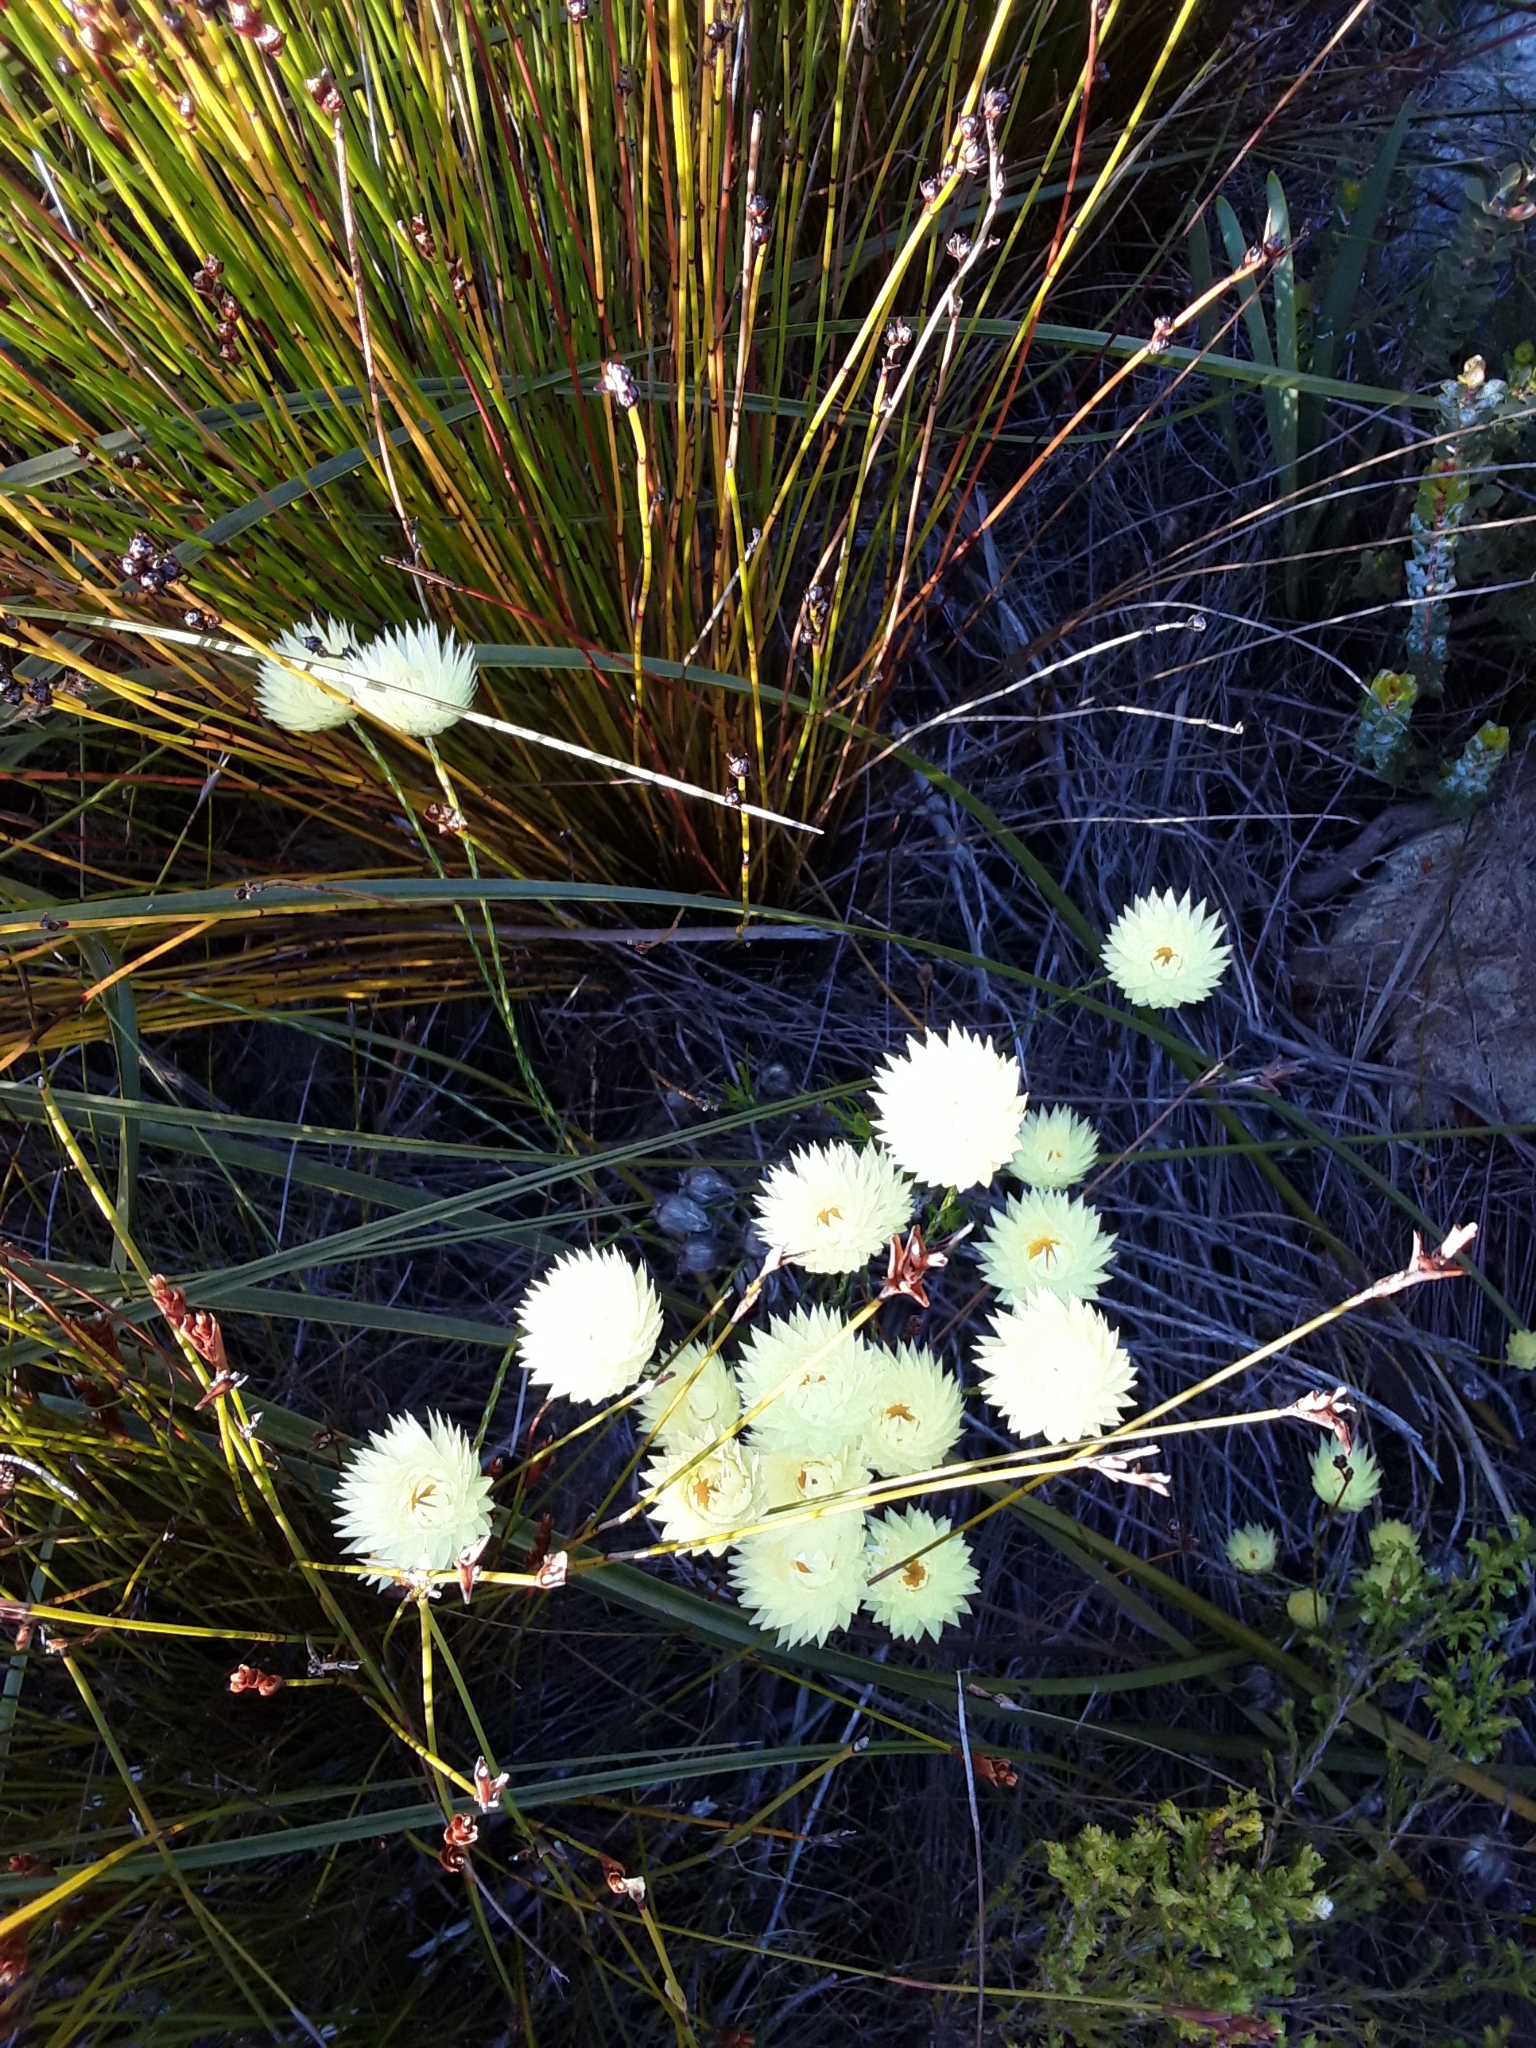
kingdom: Plantae
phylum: Tracheophyta
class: Magnoliopsida
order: Asterales
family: Asteraceae
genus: Edmondia
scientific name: Edmondia sesamoides
